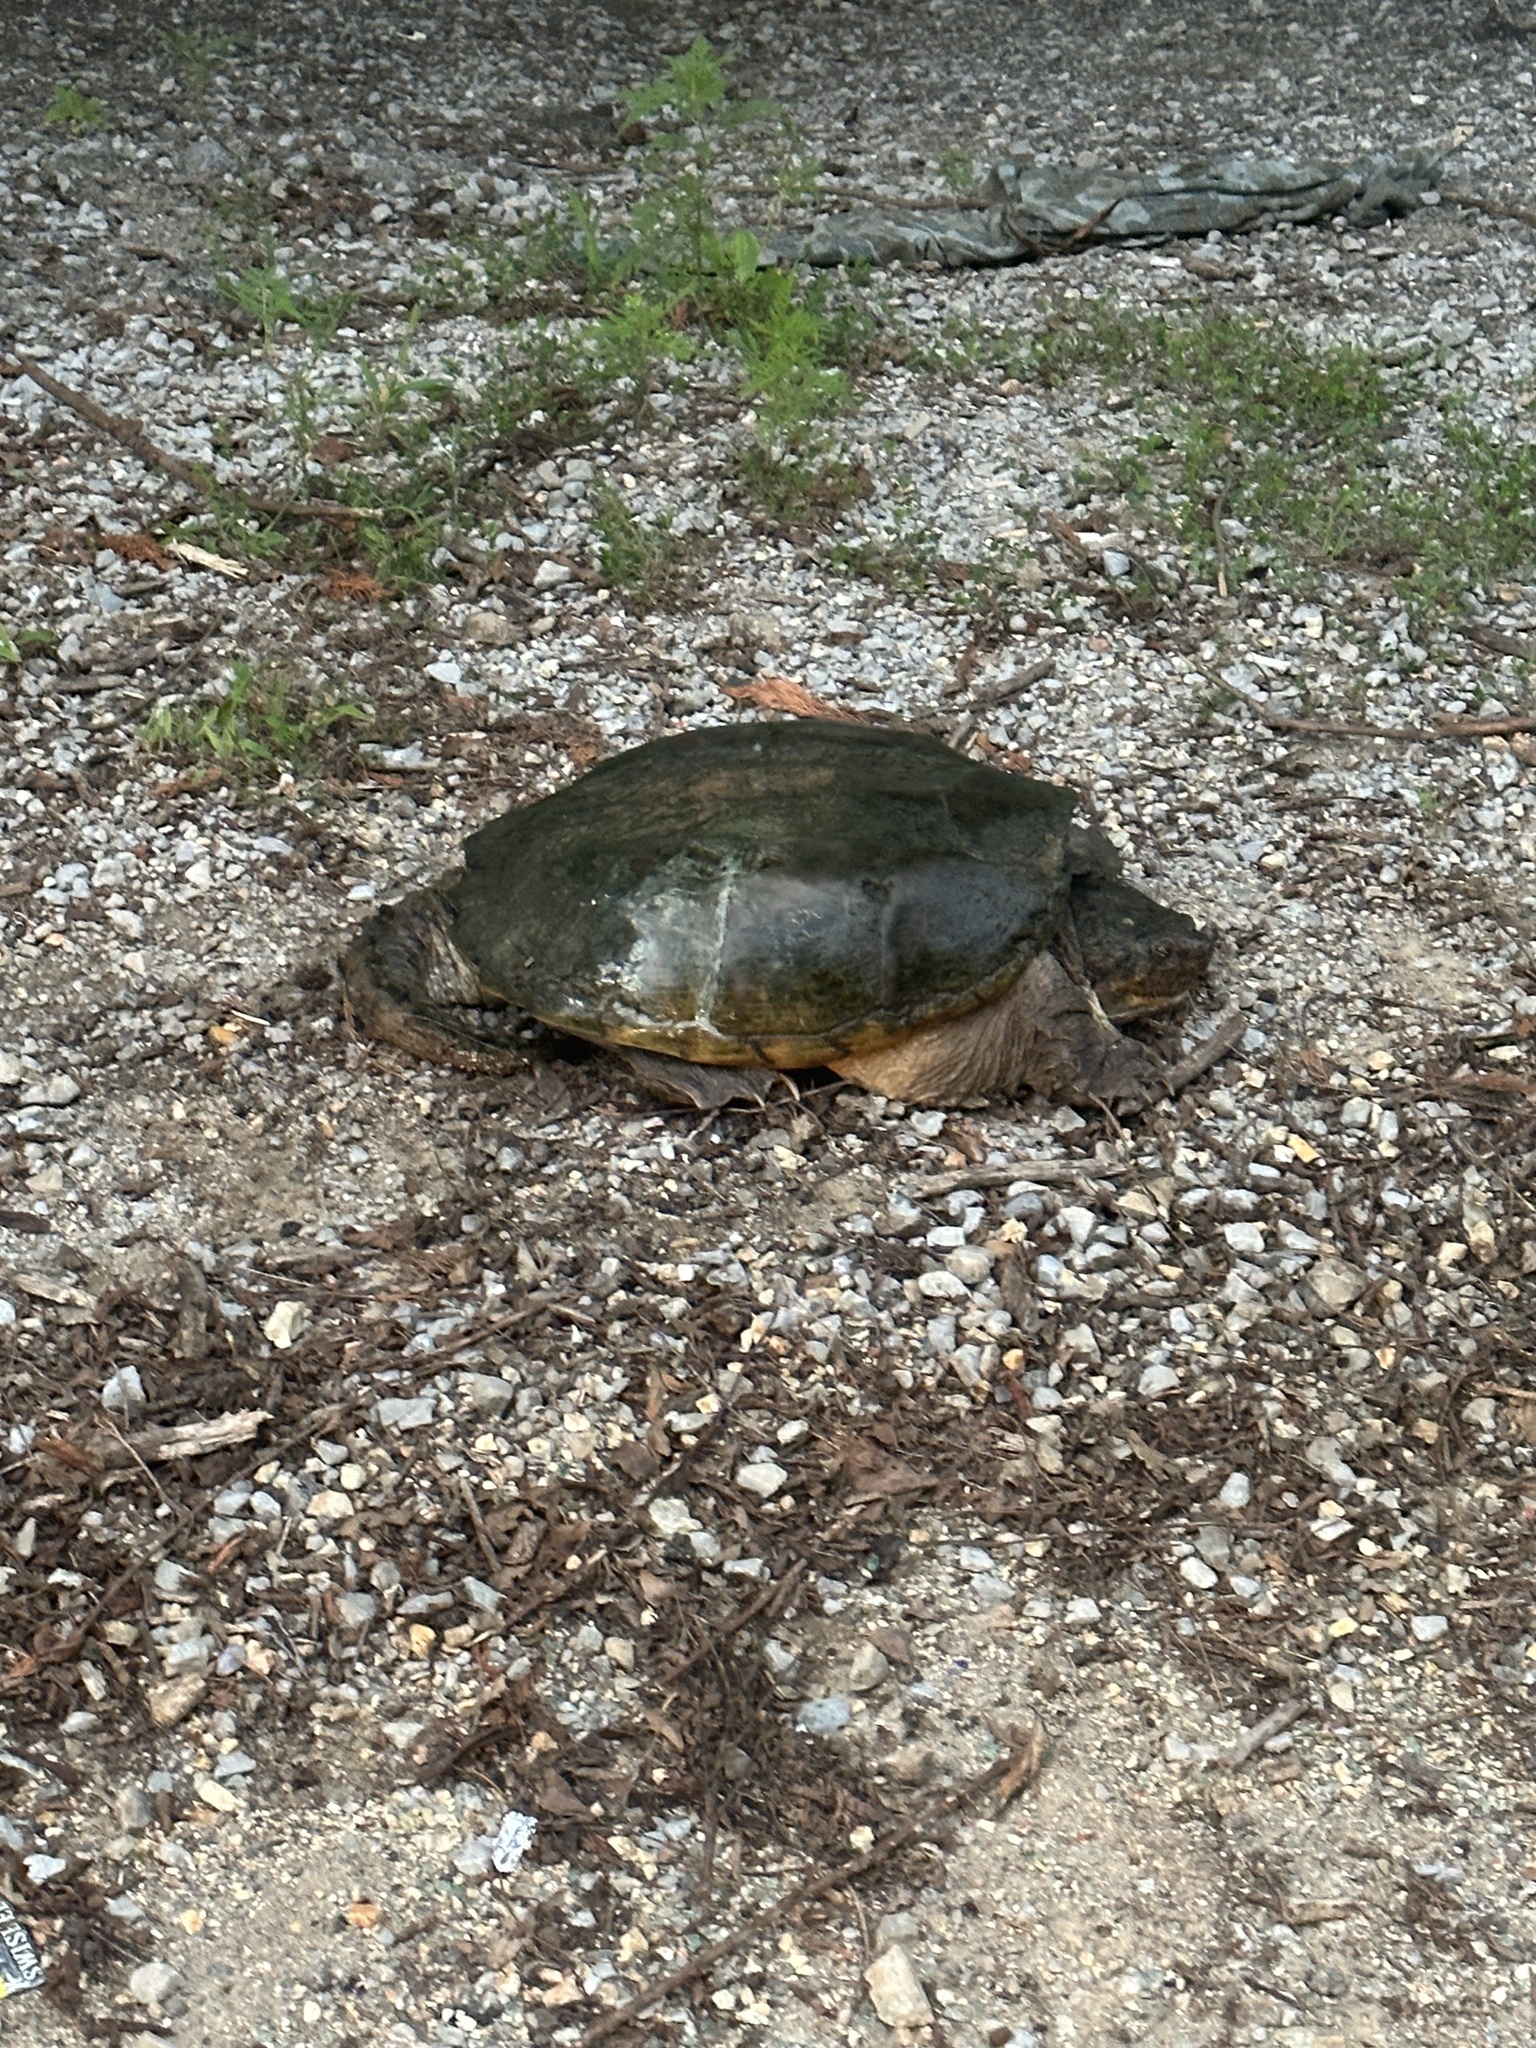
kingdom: Animalia
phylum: Chordata
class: Testudines
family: Chelydridae
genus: Chelydra
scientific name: Chelydra serpentina
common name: Common snapping turtle
